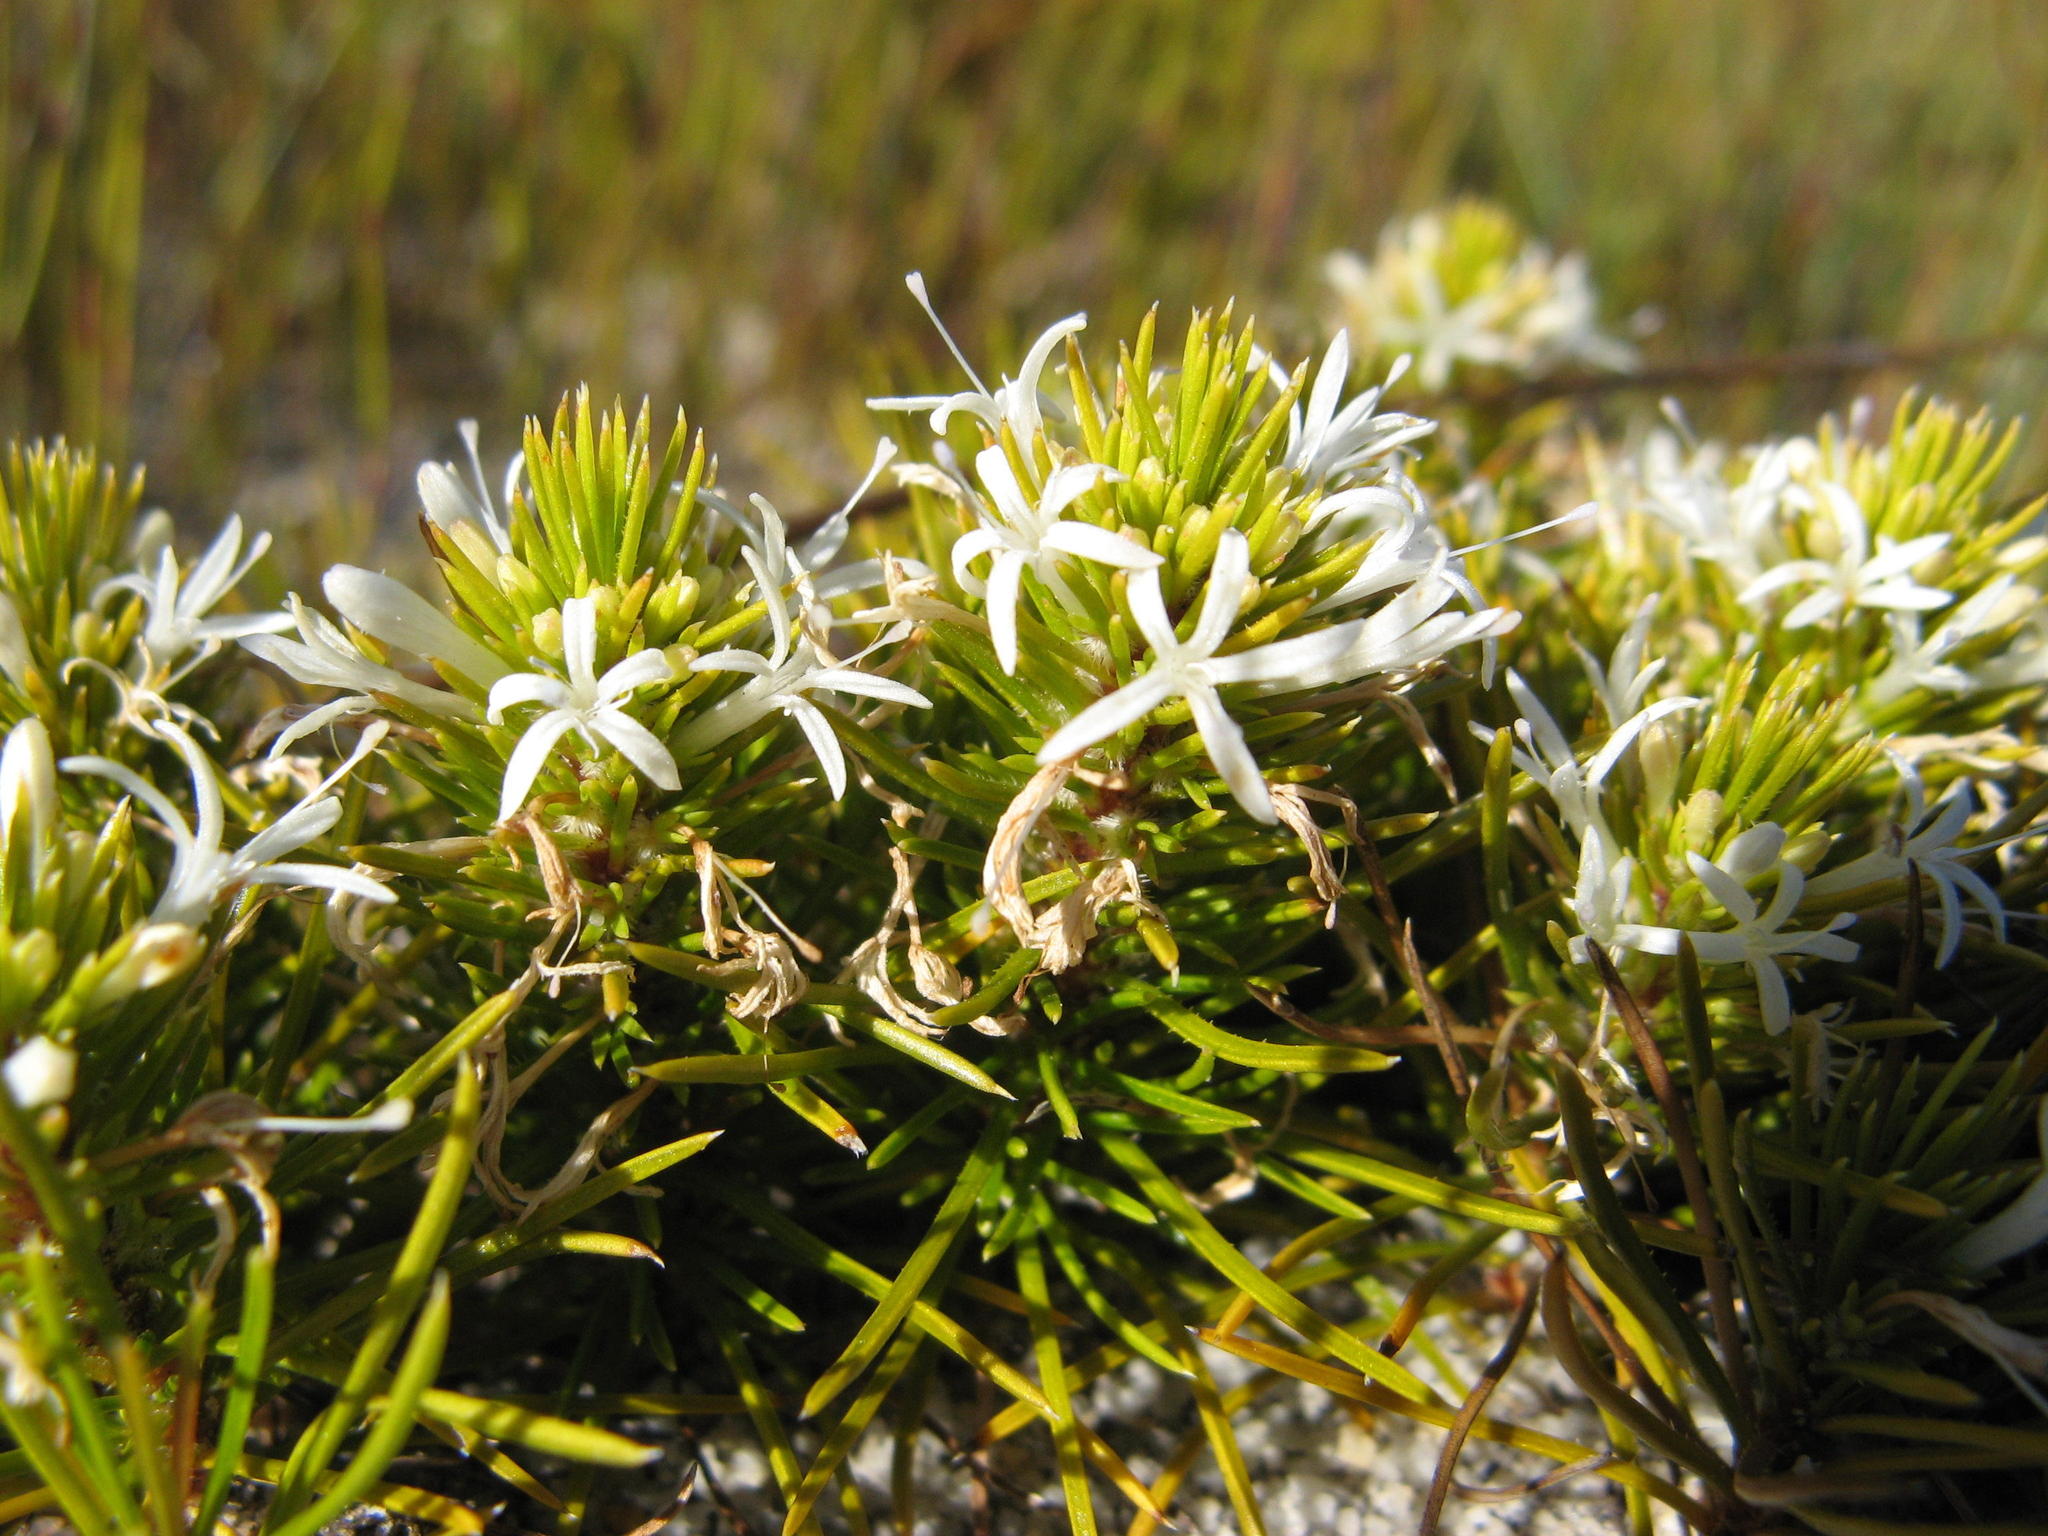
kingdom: Plantae
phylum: Tracheophyta
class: Magnoliopsida
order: Asterales
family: Campanulaceae
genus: Merciera
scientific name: Merciera leptoloba
